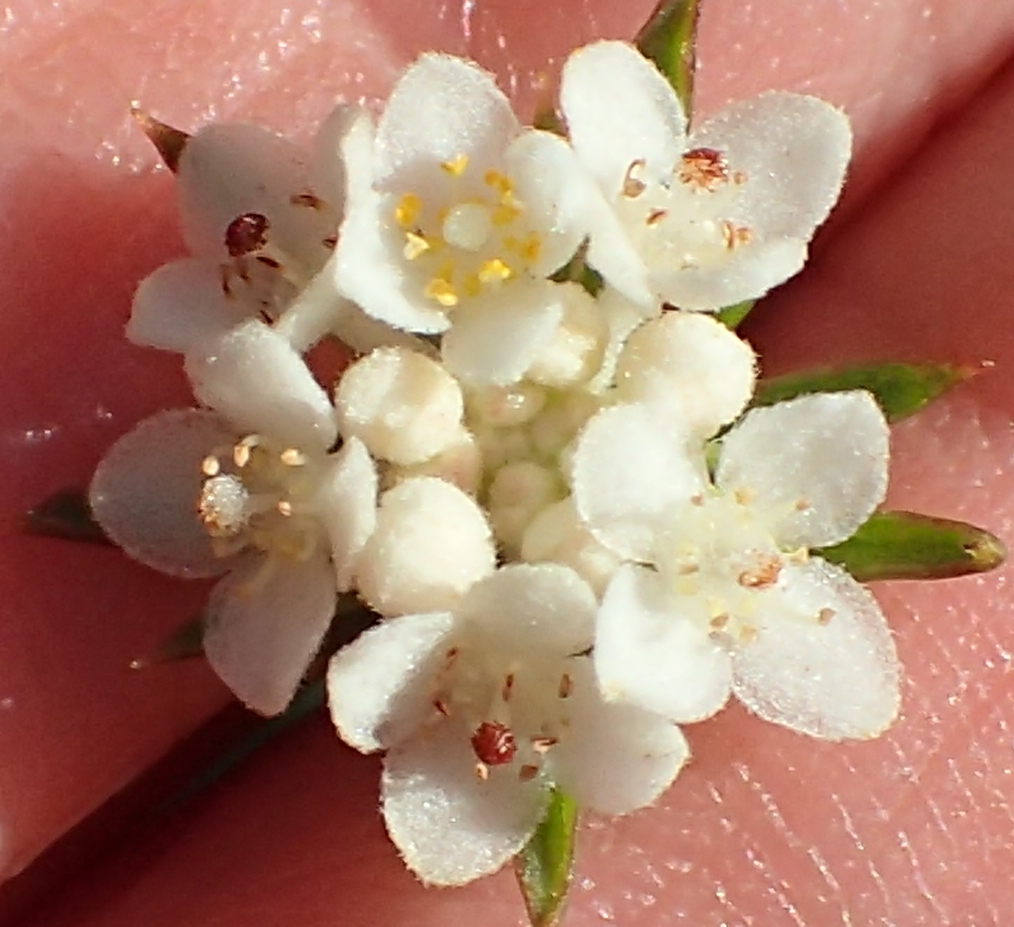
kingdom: Plantae
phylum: Tracheophyta
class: Magnoliopsida
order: Malvales
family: Thymelaeaceae
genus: Lachnaea
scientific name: Lachnaea diosmoides
